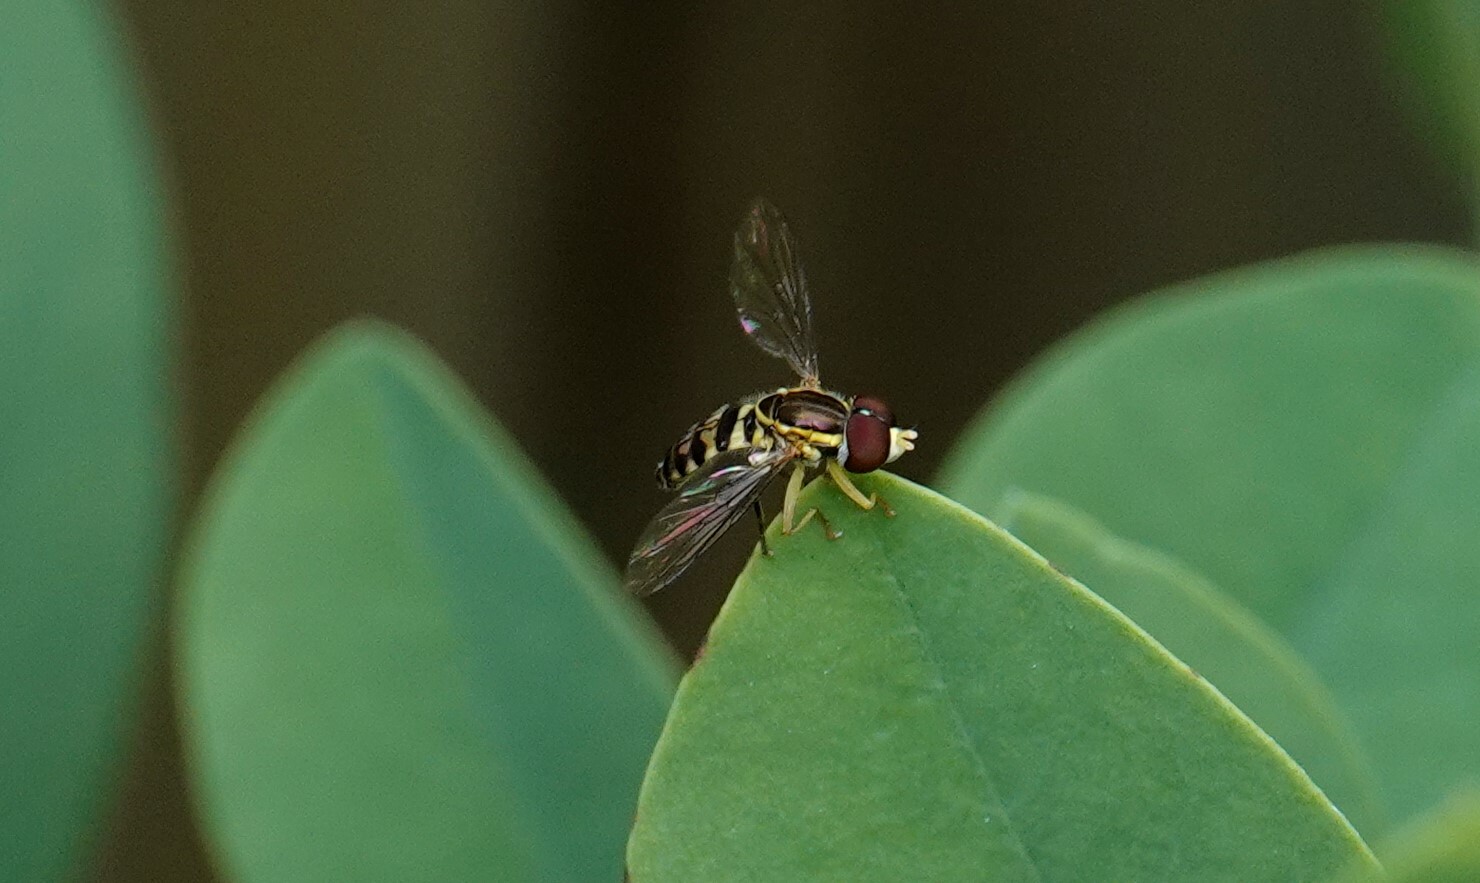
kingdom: Animalia
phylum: Arthropoda
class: Insecta
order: Diptera
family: Syrphidae
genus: Toxomerus
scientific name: Toxomerus geminatus
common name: Eastern calligrapher
